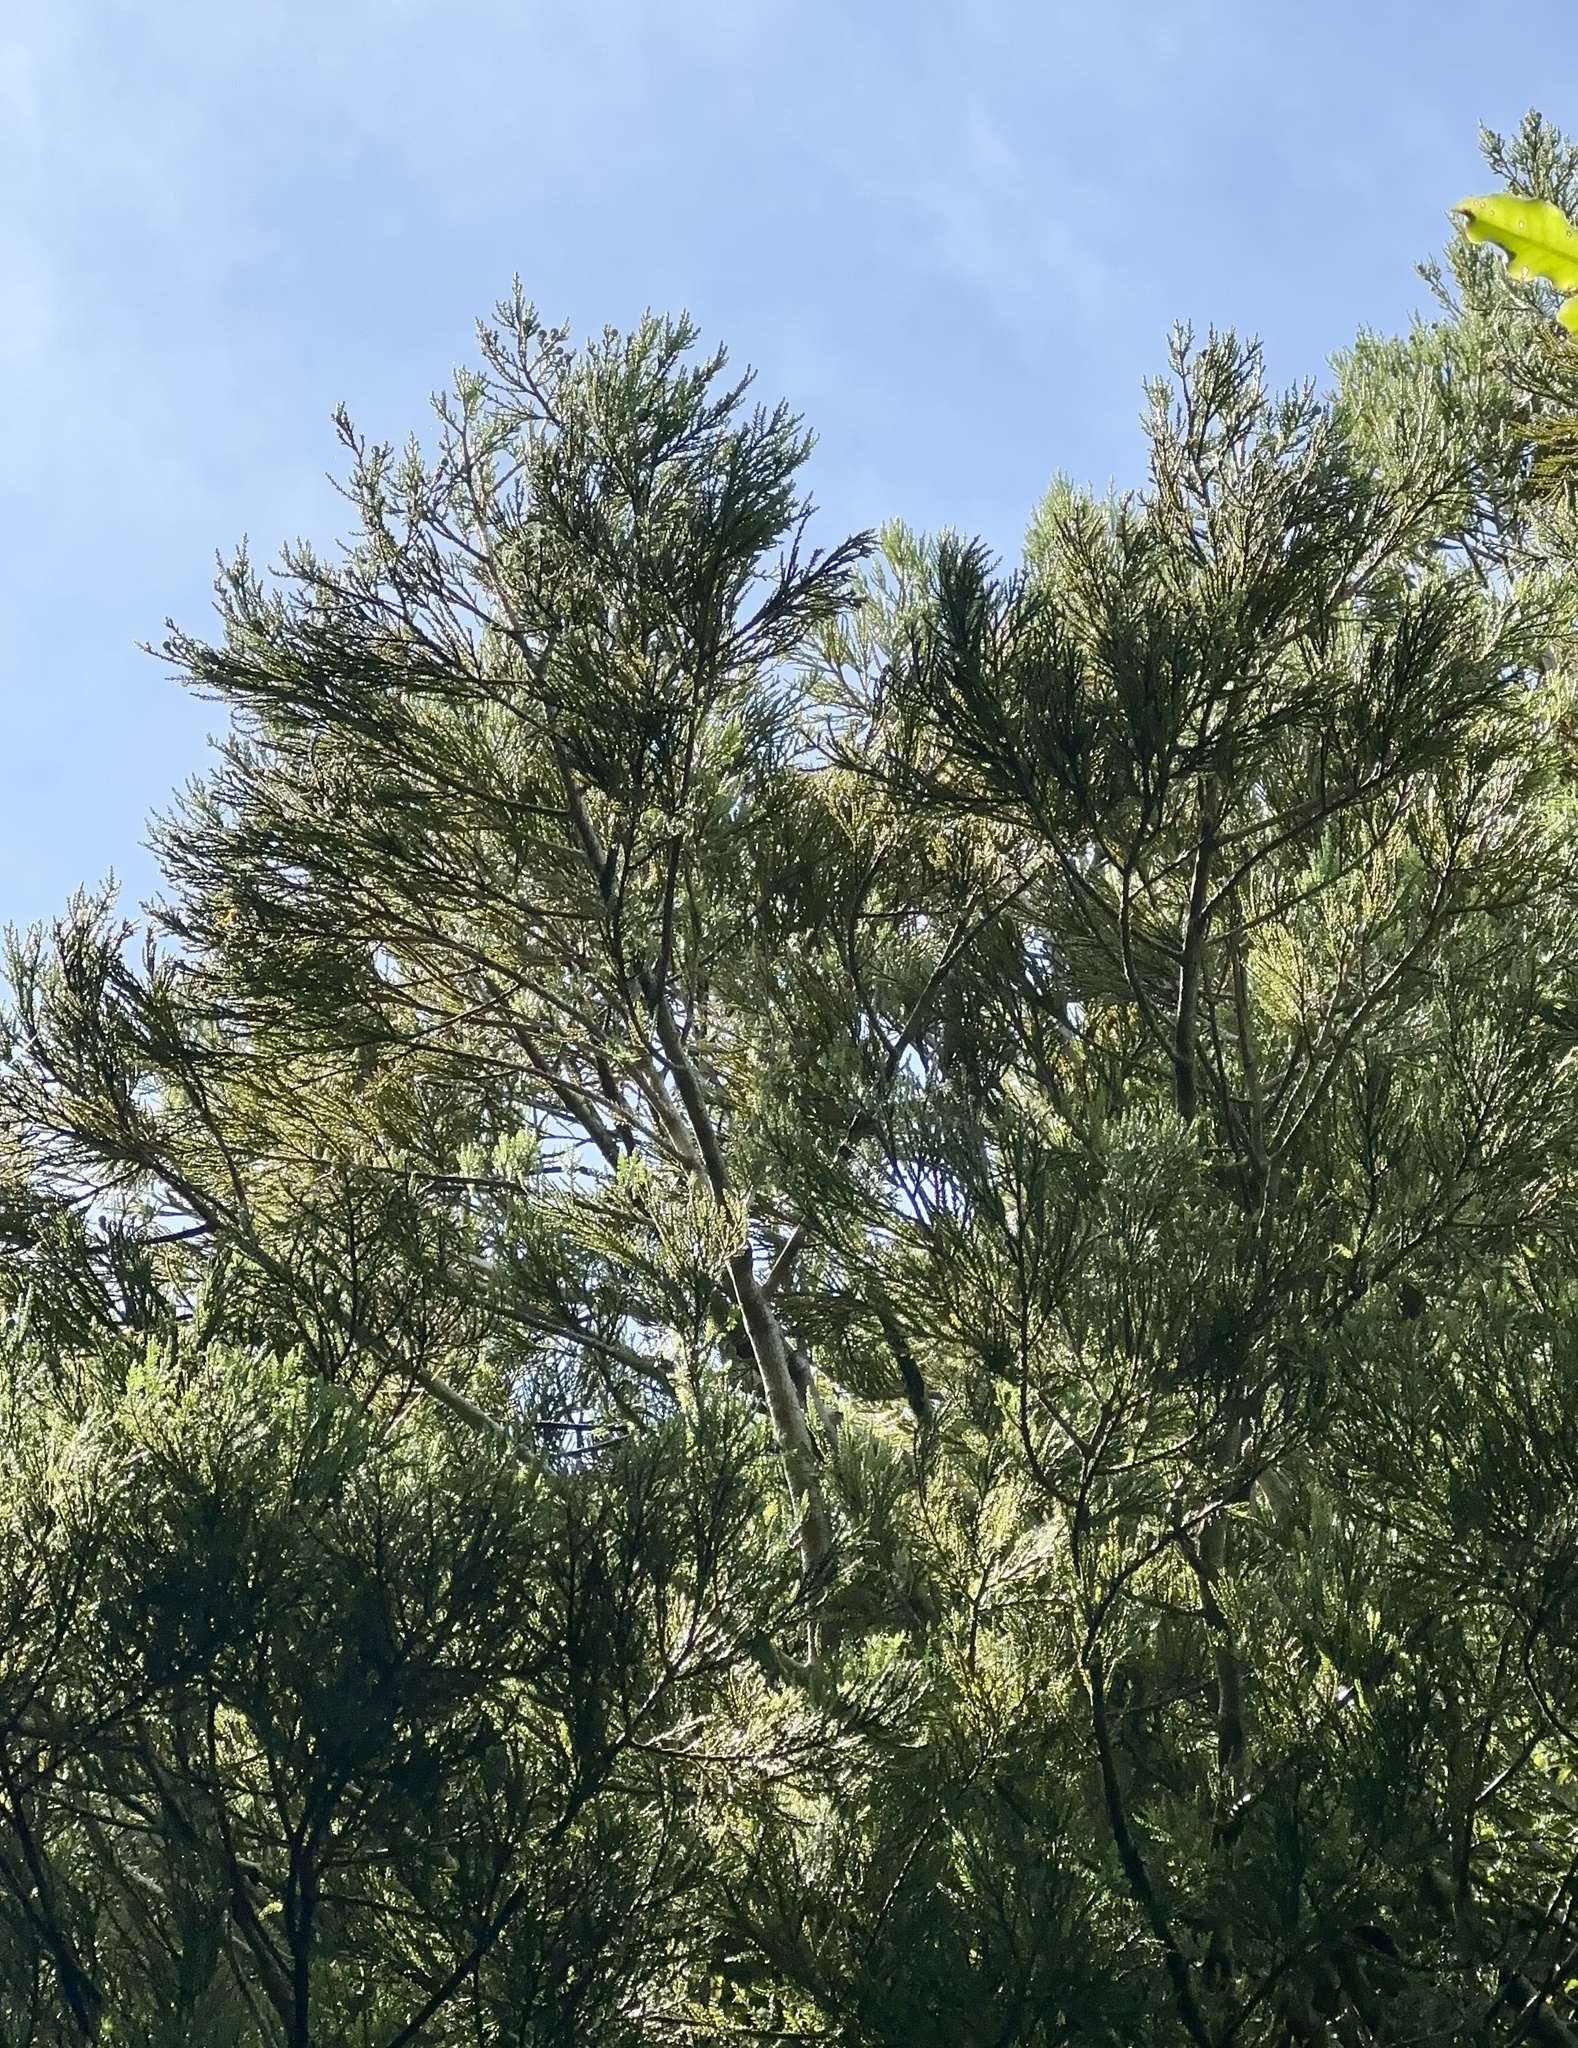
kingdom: Plantae
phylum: Tracheophyta
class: Pinopsida
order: Pinales
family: Podocarpaceae
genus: Dacrycarpus
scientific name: Dacrycarpus dacrydioides
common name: White pine
